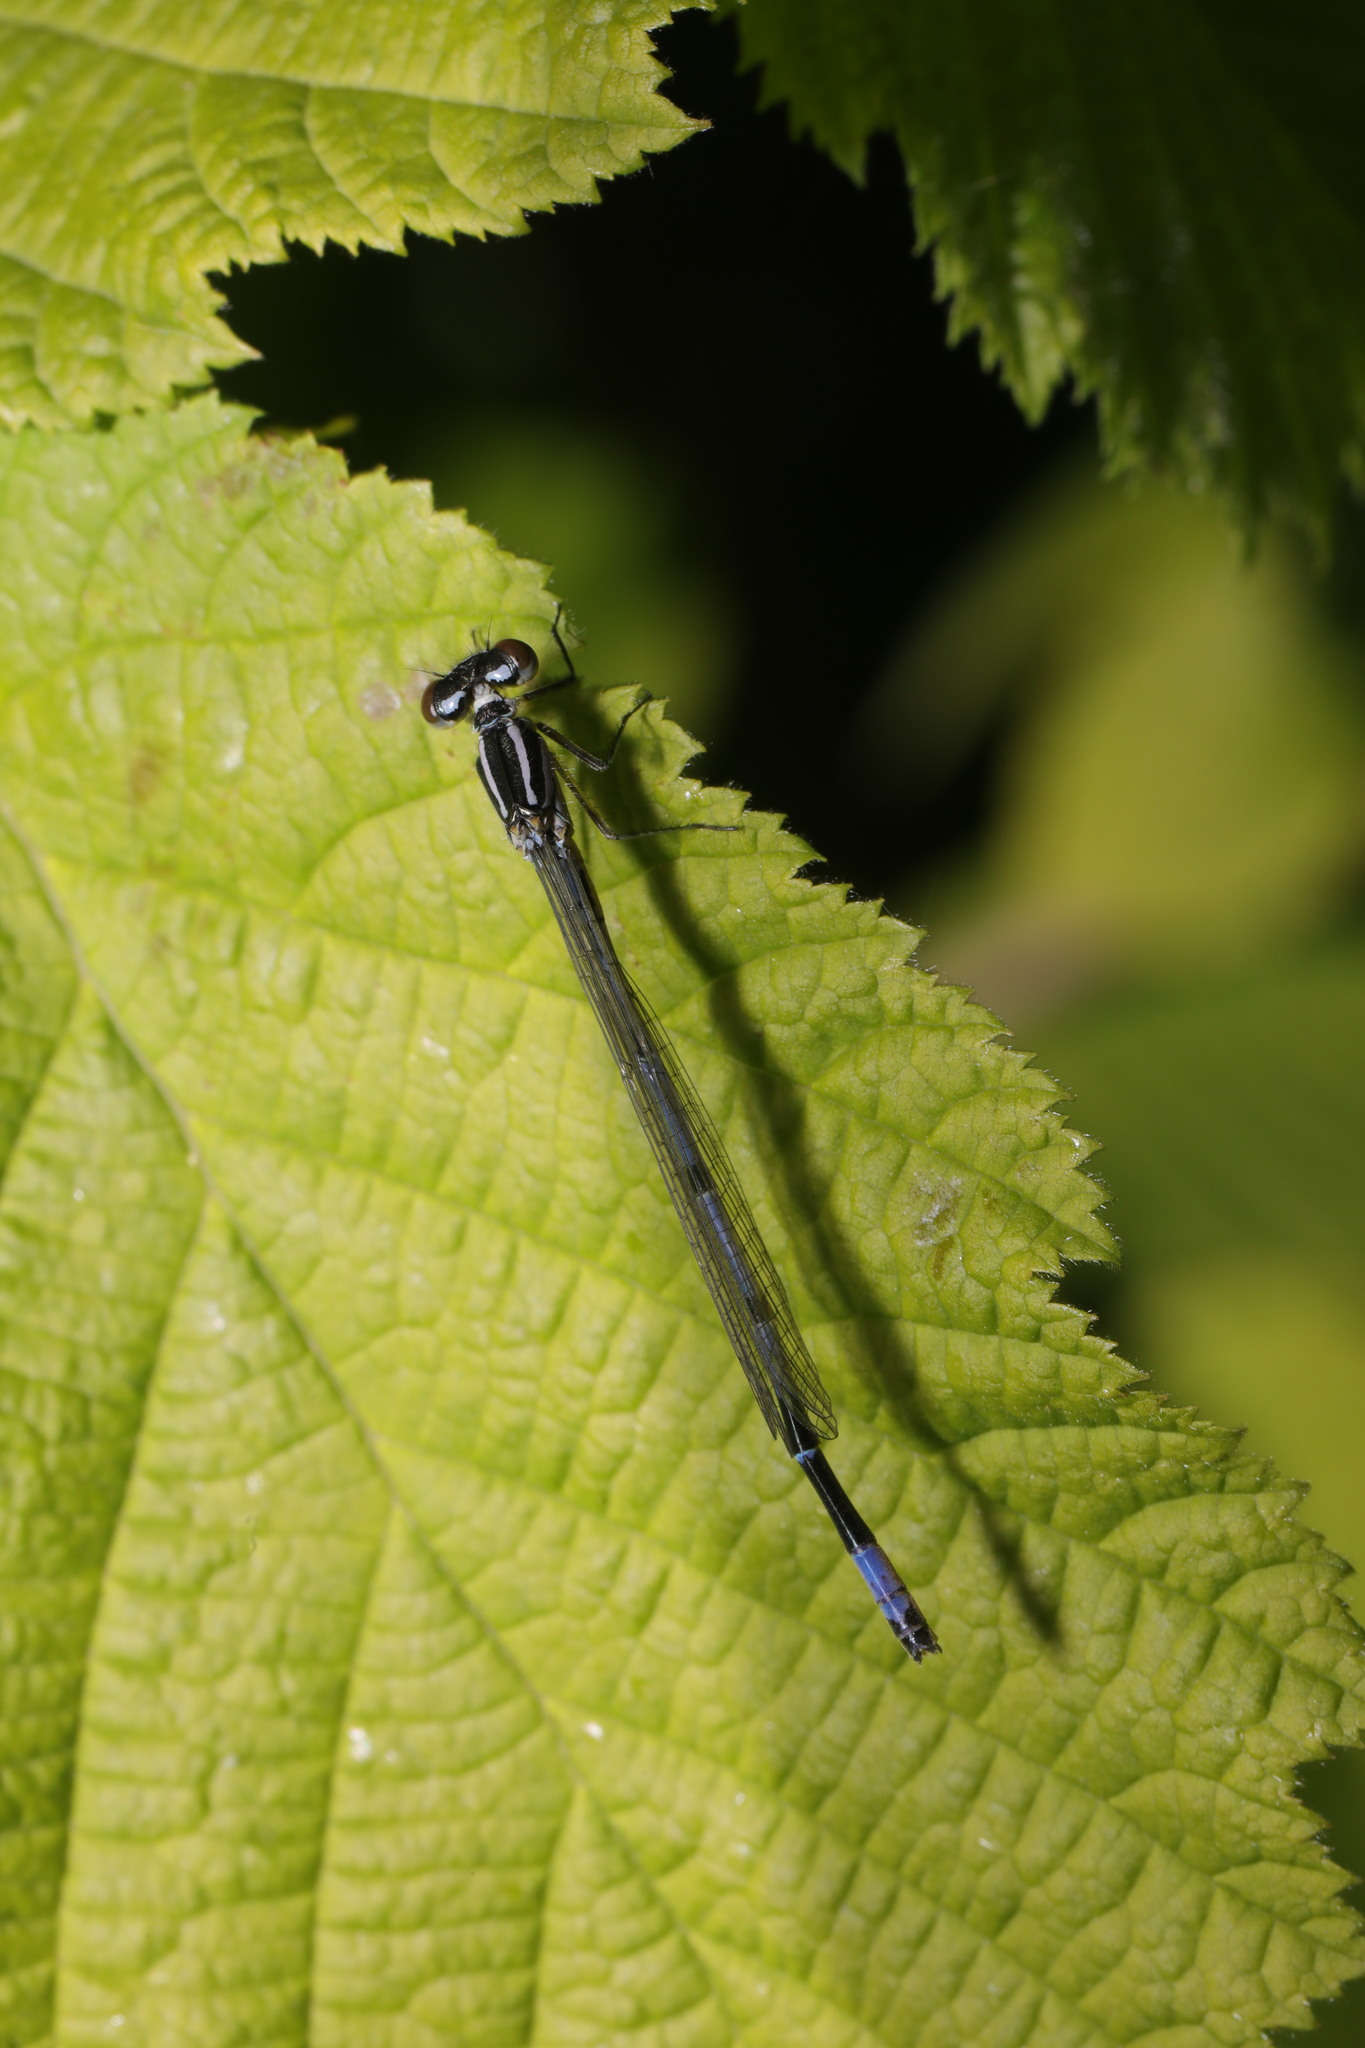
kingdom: Animalia
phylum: Arthropoda
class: Insecta
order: Odonata
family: Coenagrionidae
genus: Coenagrion
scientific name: Coenagrion puella
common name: Azure damselfly
